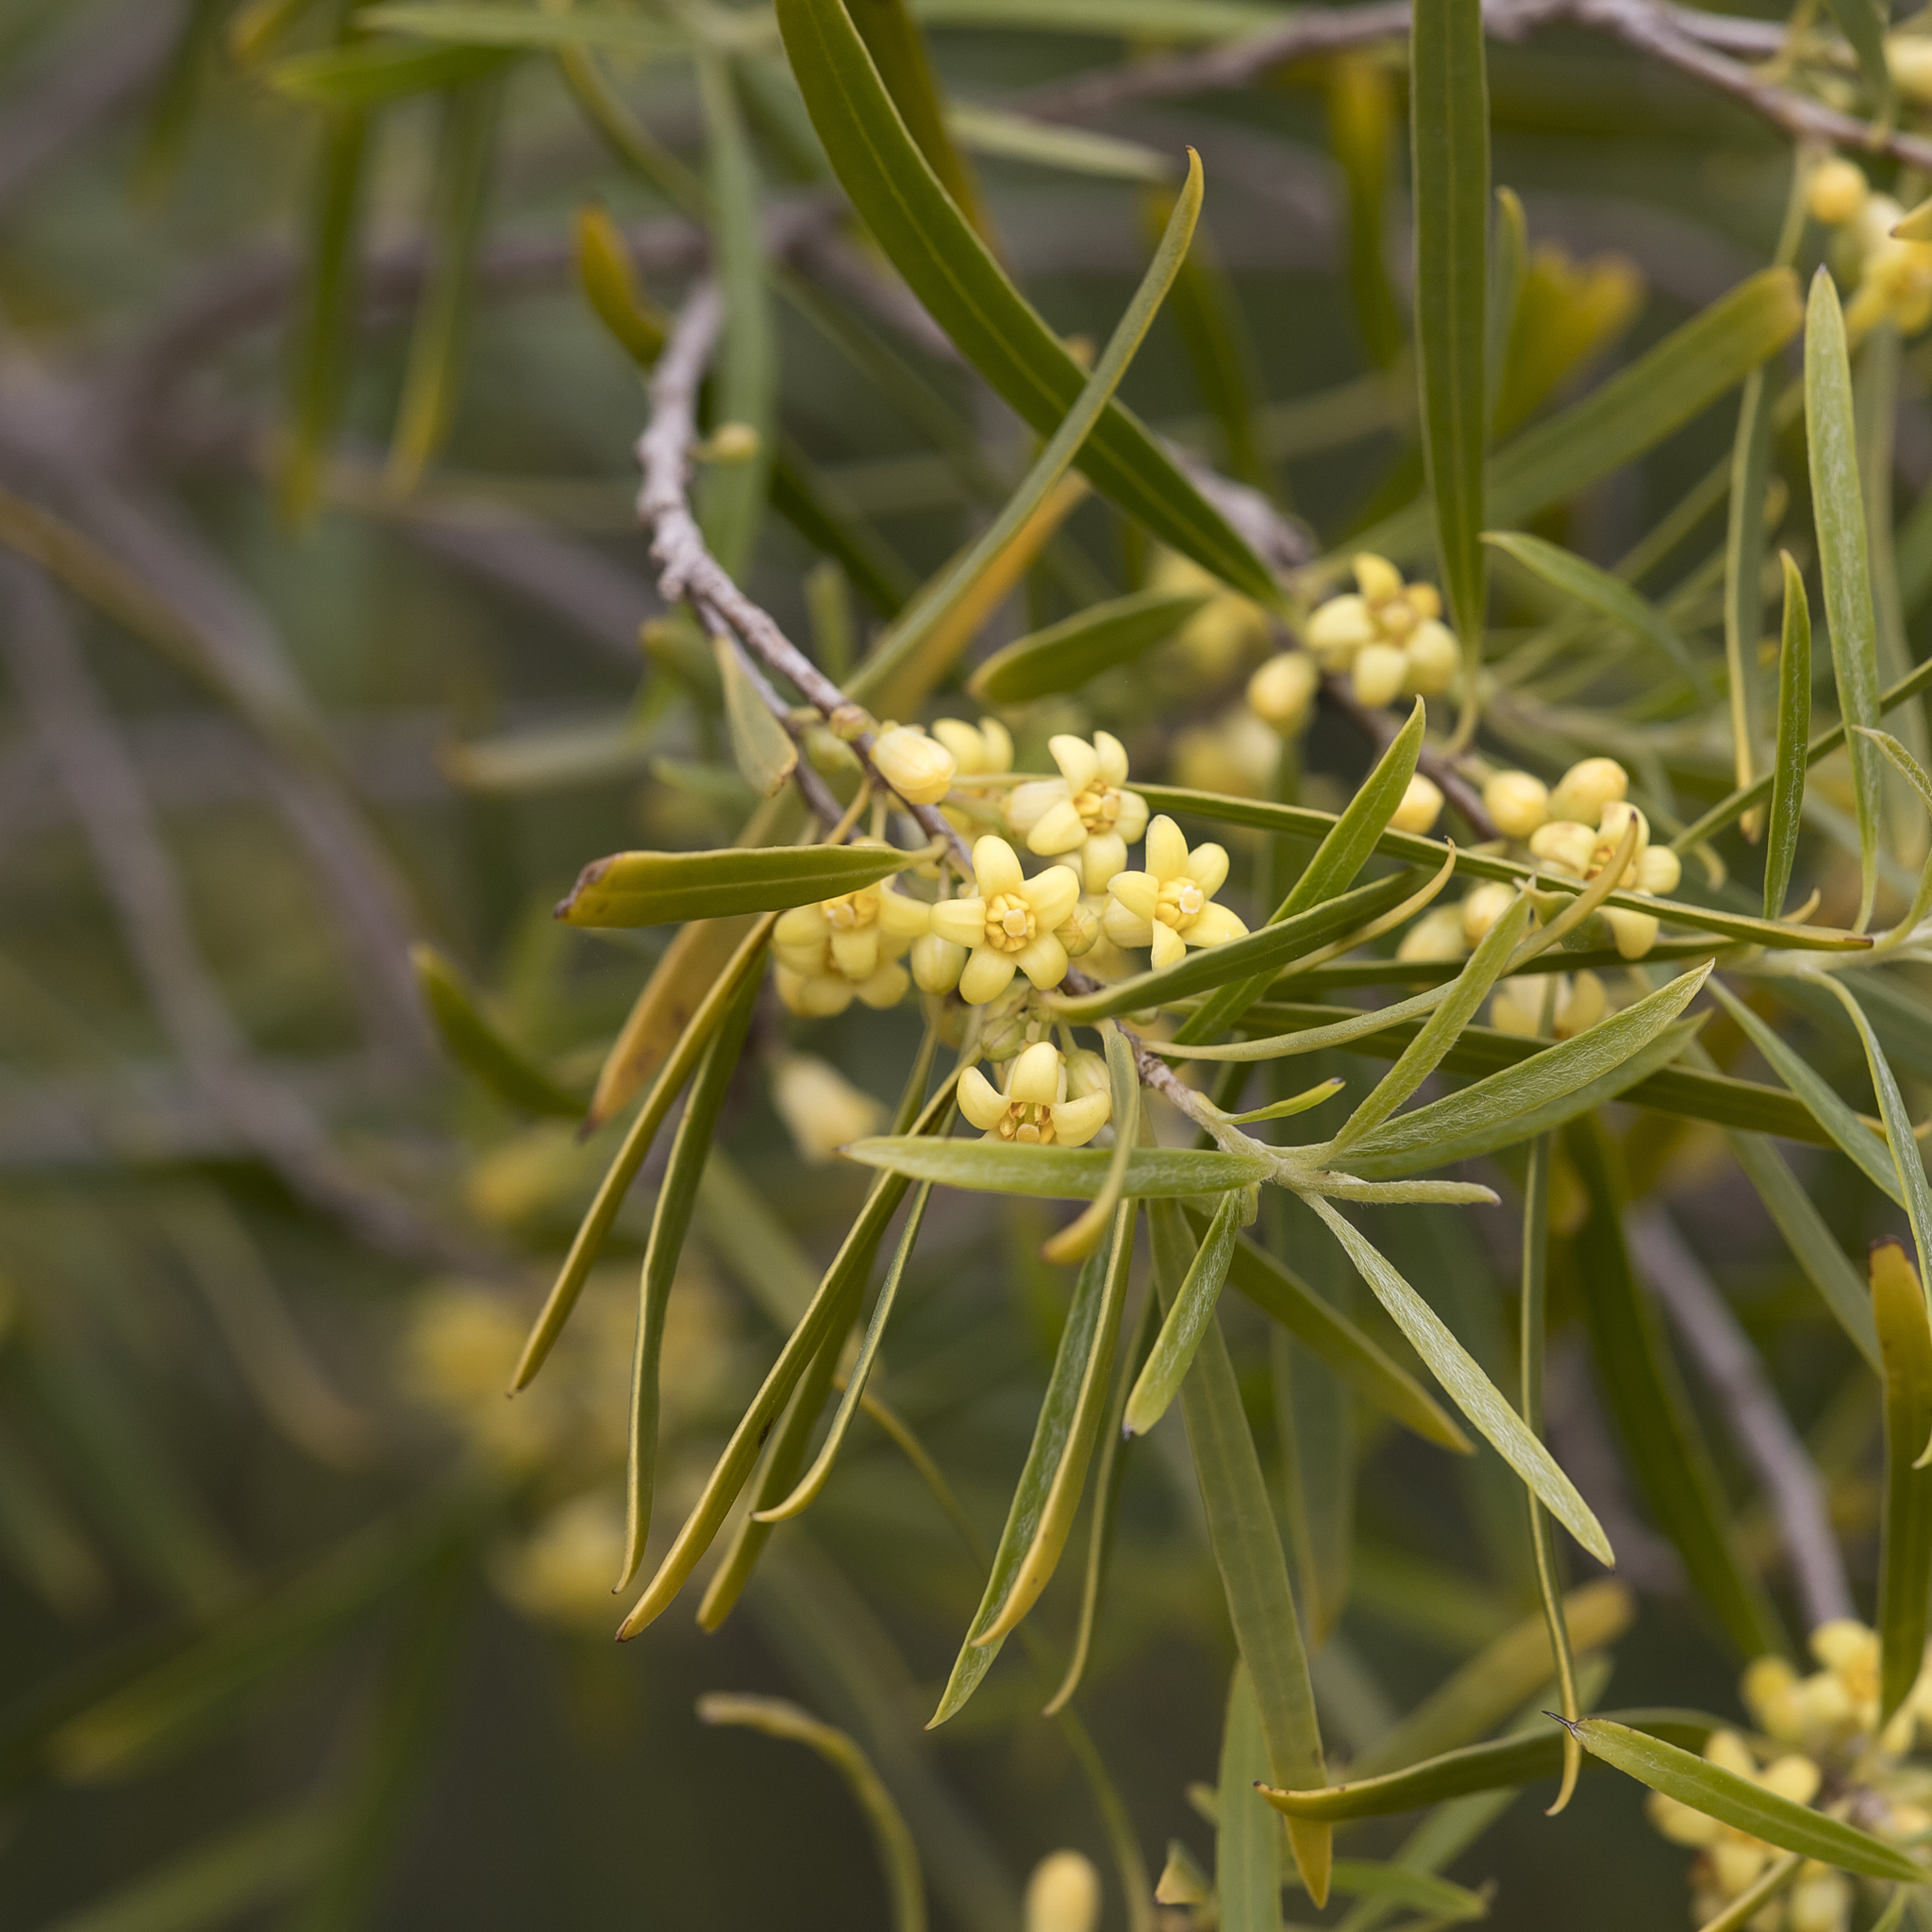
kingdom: Plantae
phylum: Tracheophyta
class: Magnoliopsida
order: Apiales
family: Pittosporaceae
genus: Pittosporum
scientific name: Pittosporum angustifolium
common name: Weeping pittosporum
